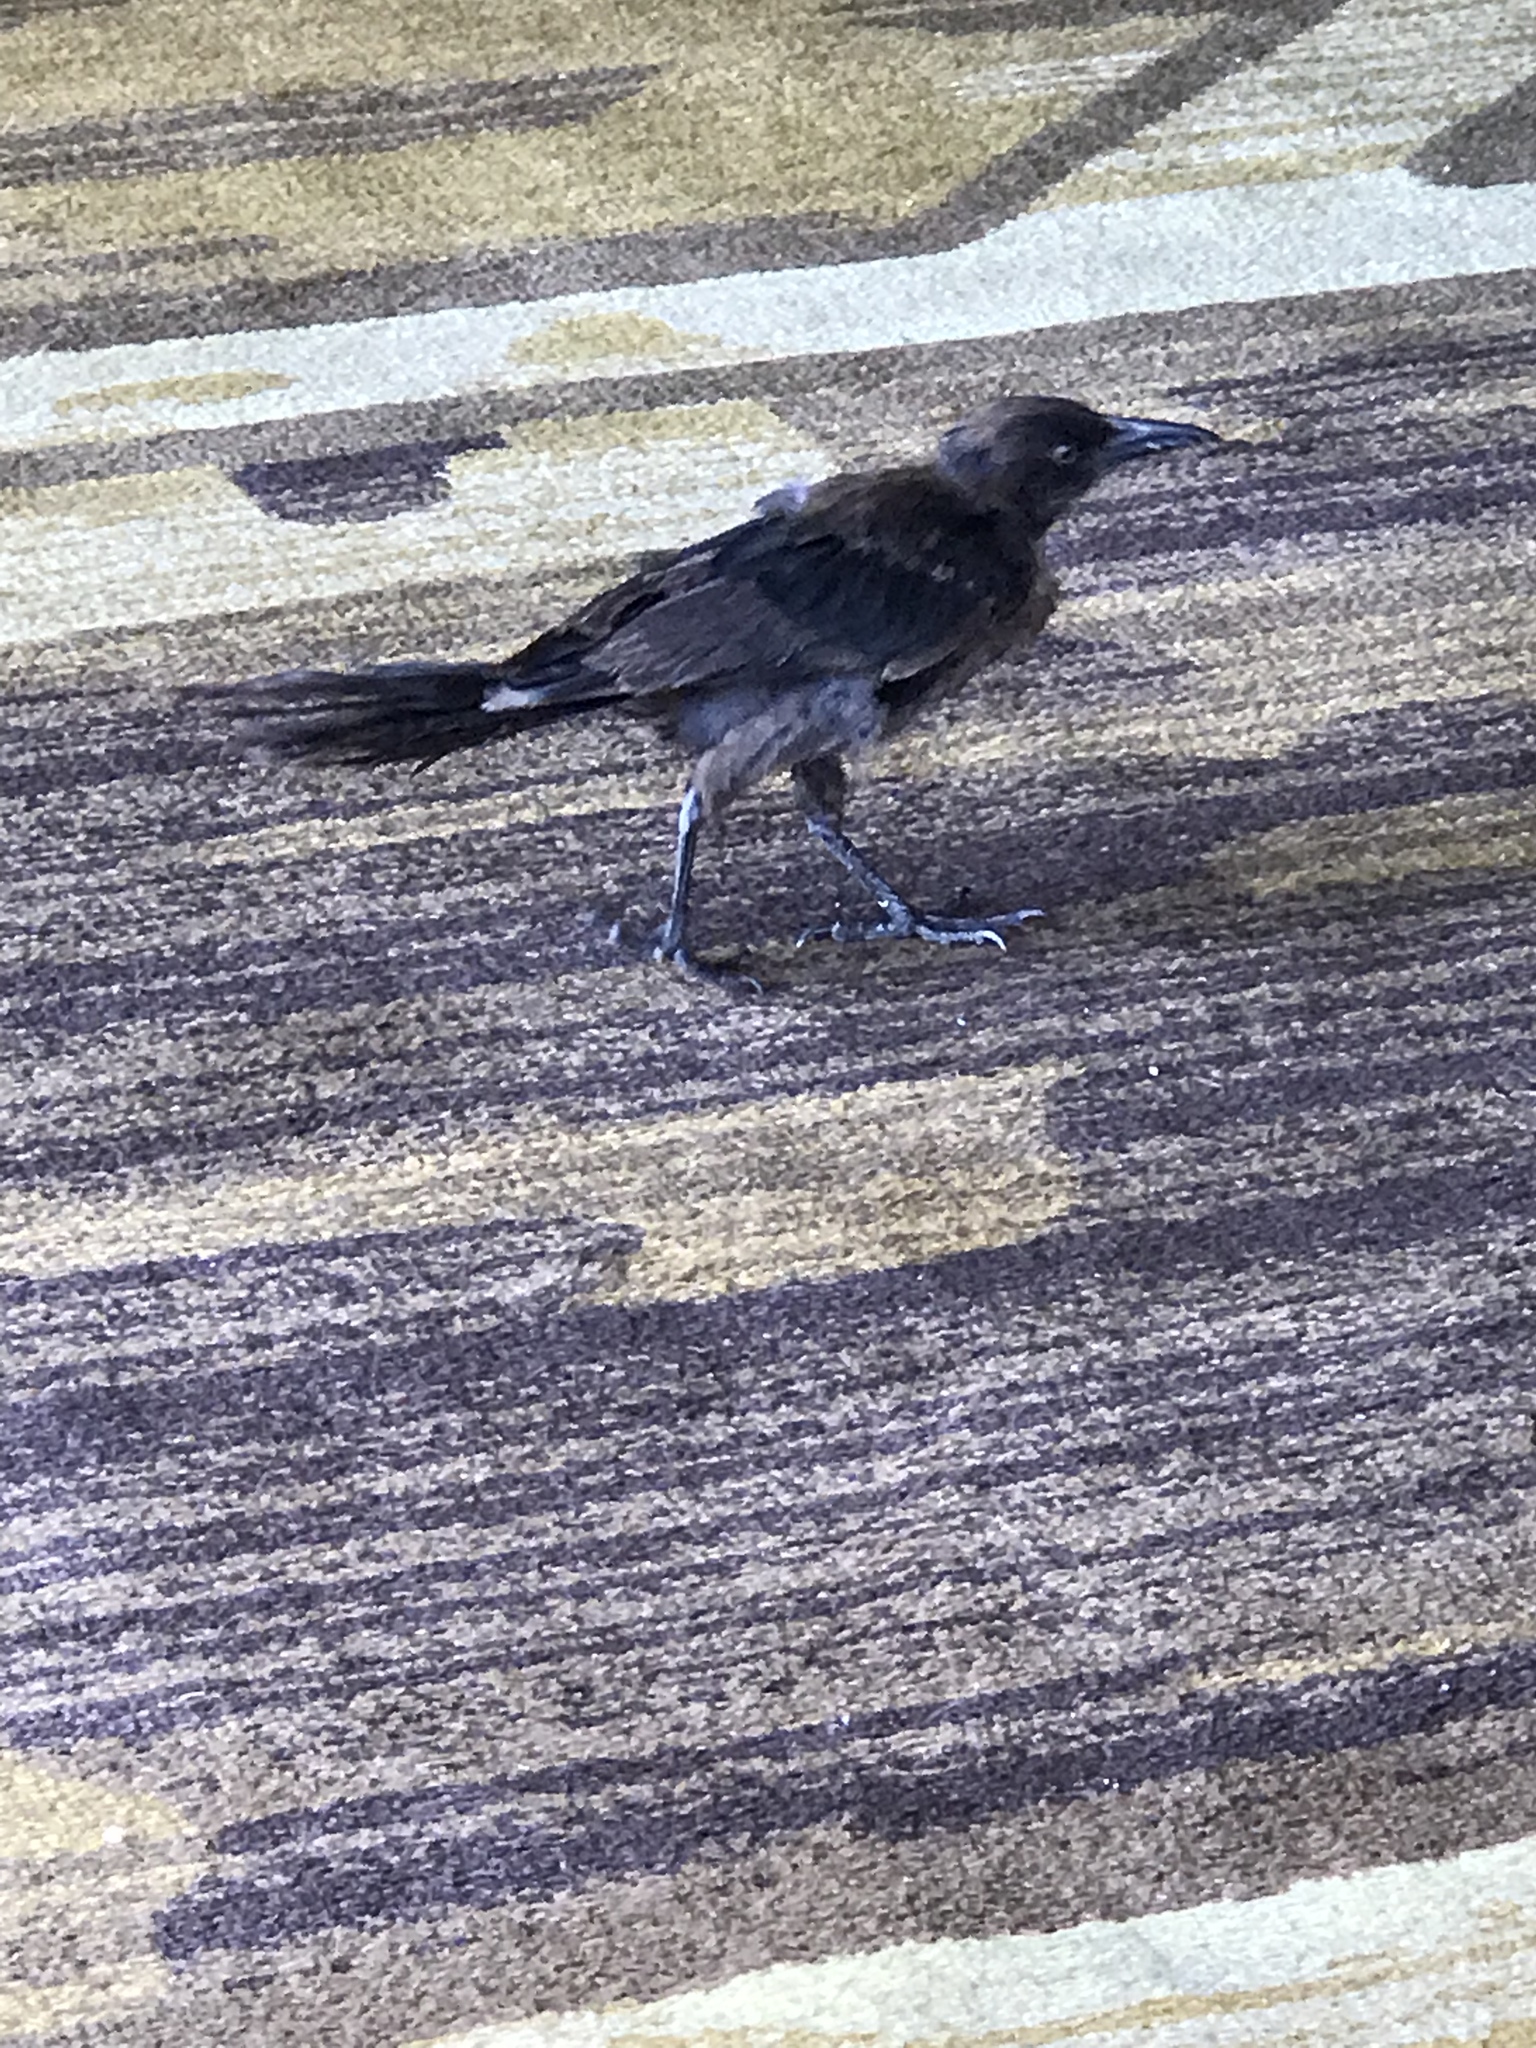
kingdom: Animalia
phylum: Chordata
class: Aves
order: Passeriformes
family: Icteridae
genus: Quiscalus
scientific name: Quiscalus mexicanus
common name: Great-tailed grackle
